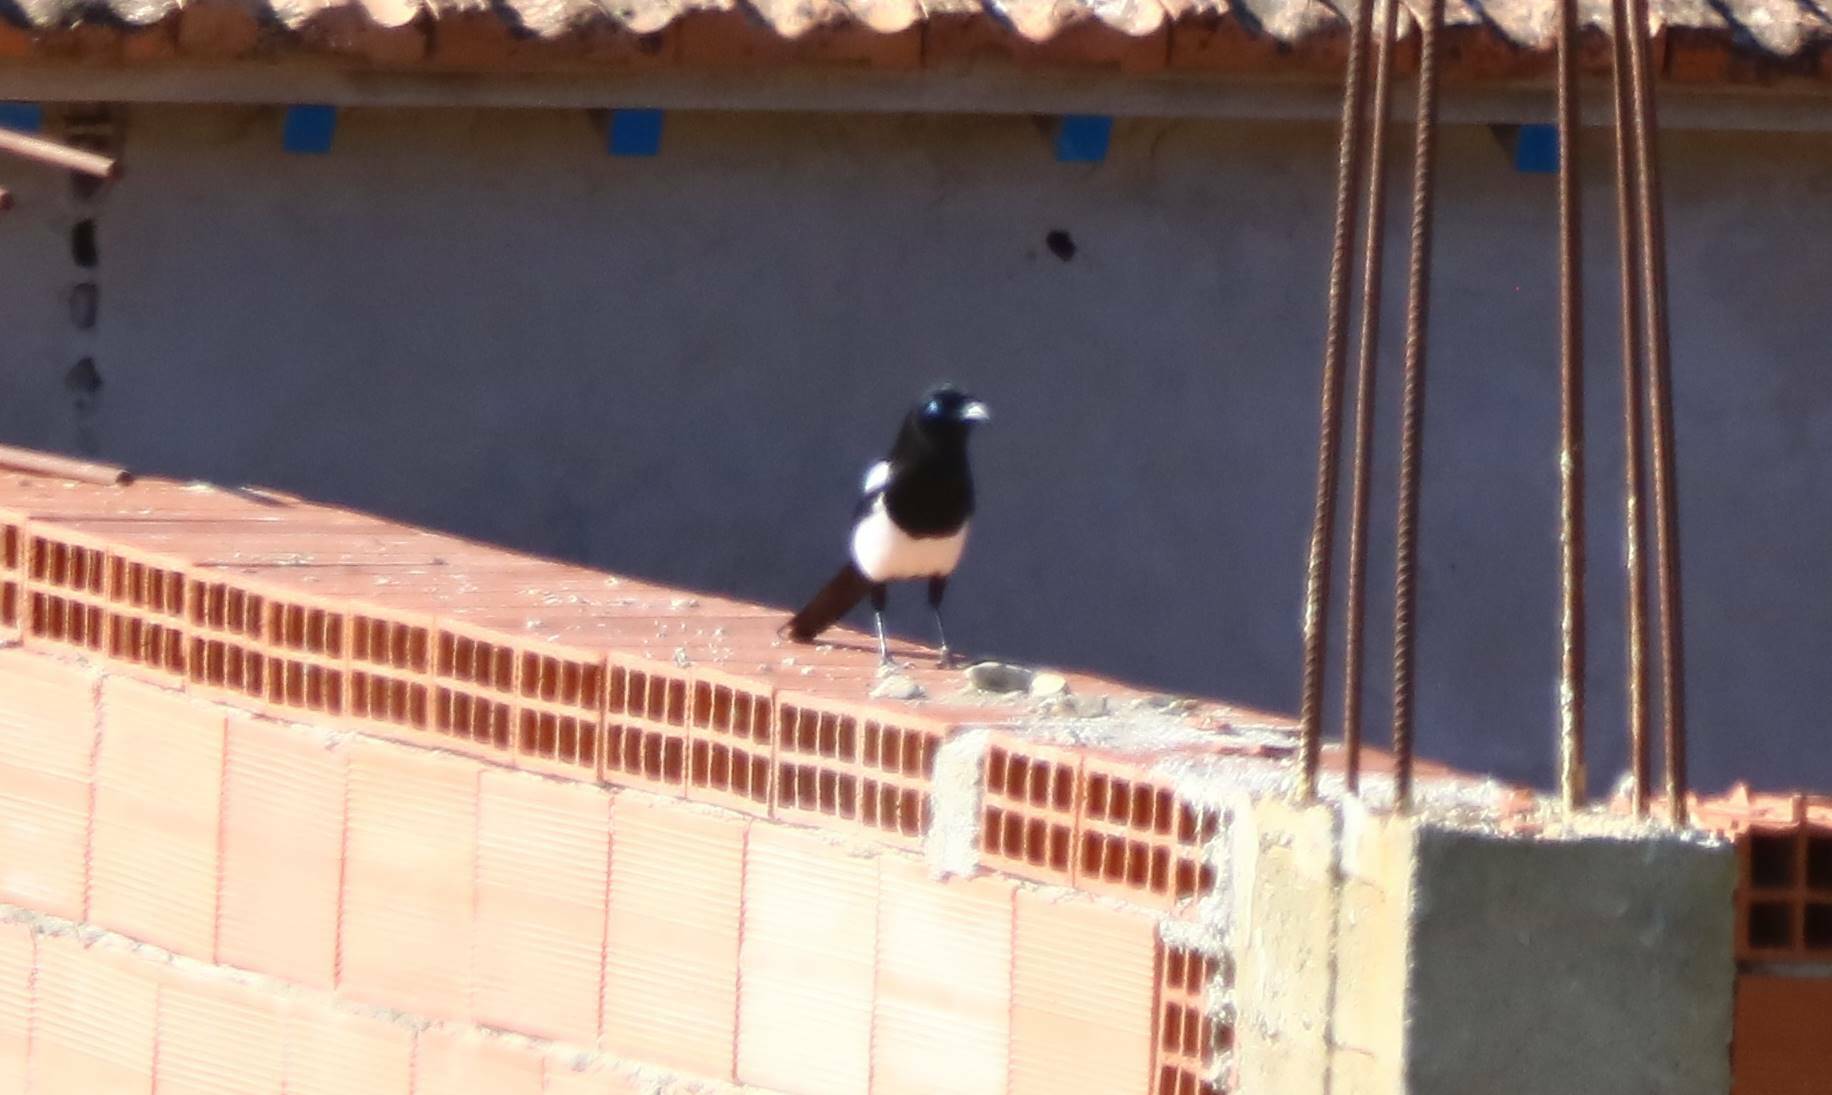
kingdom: Animalia
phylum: Chordata
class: Aves
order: Passeriformes
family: Corvidae
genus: Pica
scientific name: Pica mauritanica
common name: Maghreb magpie
